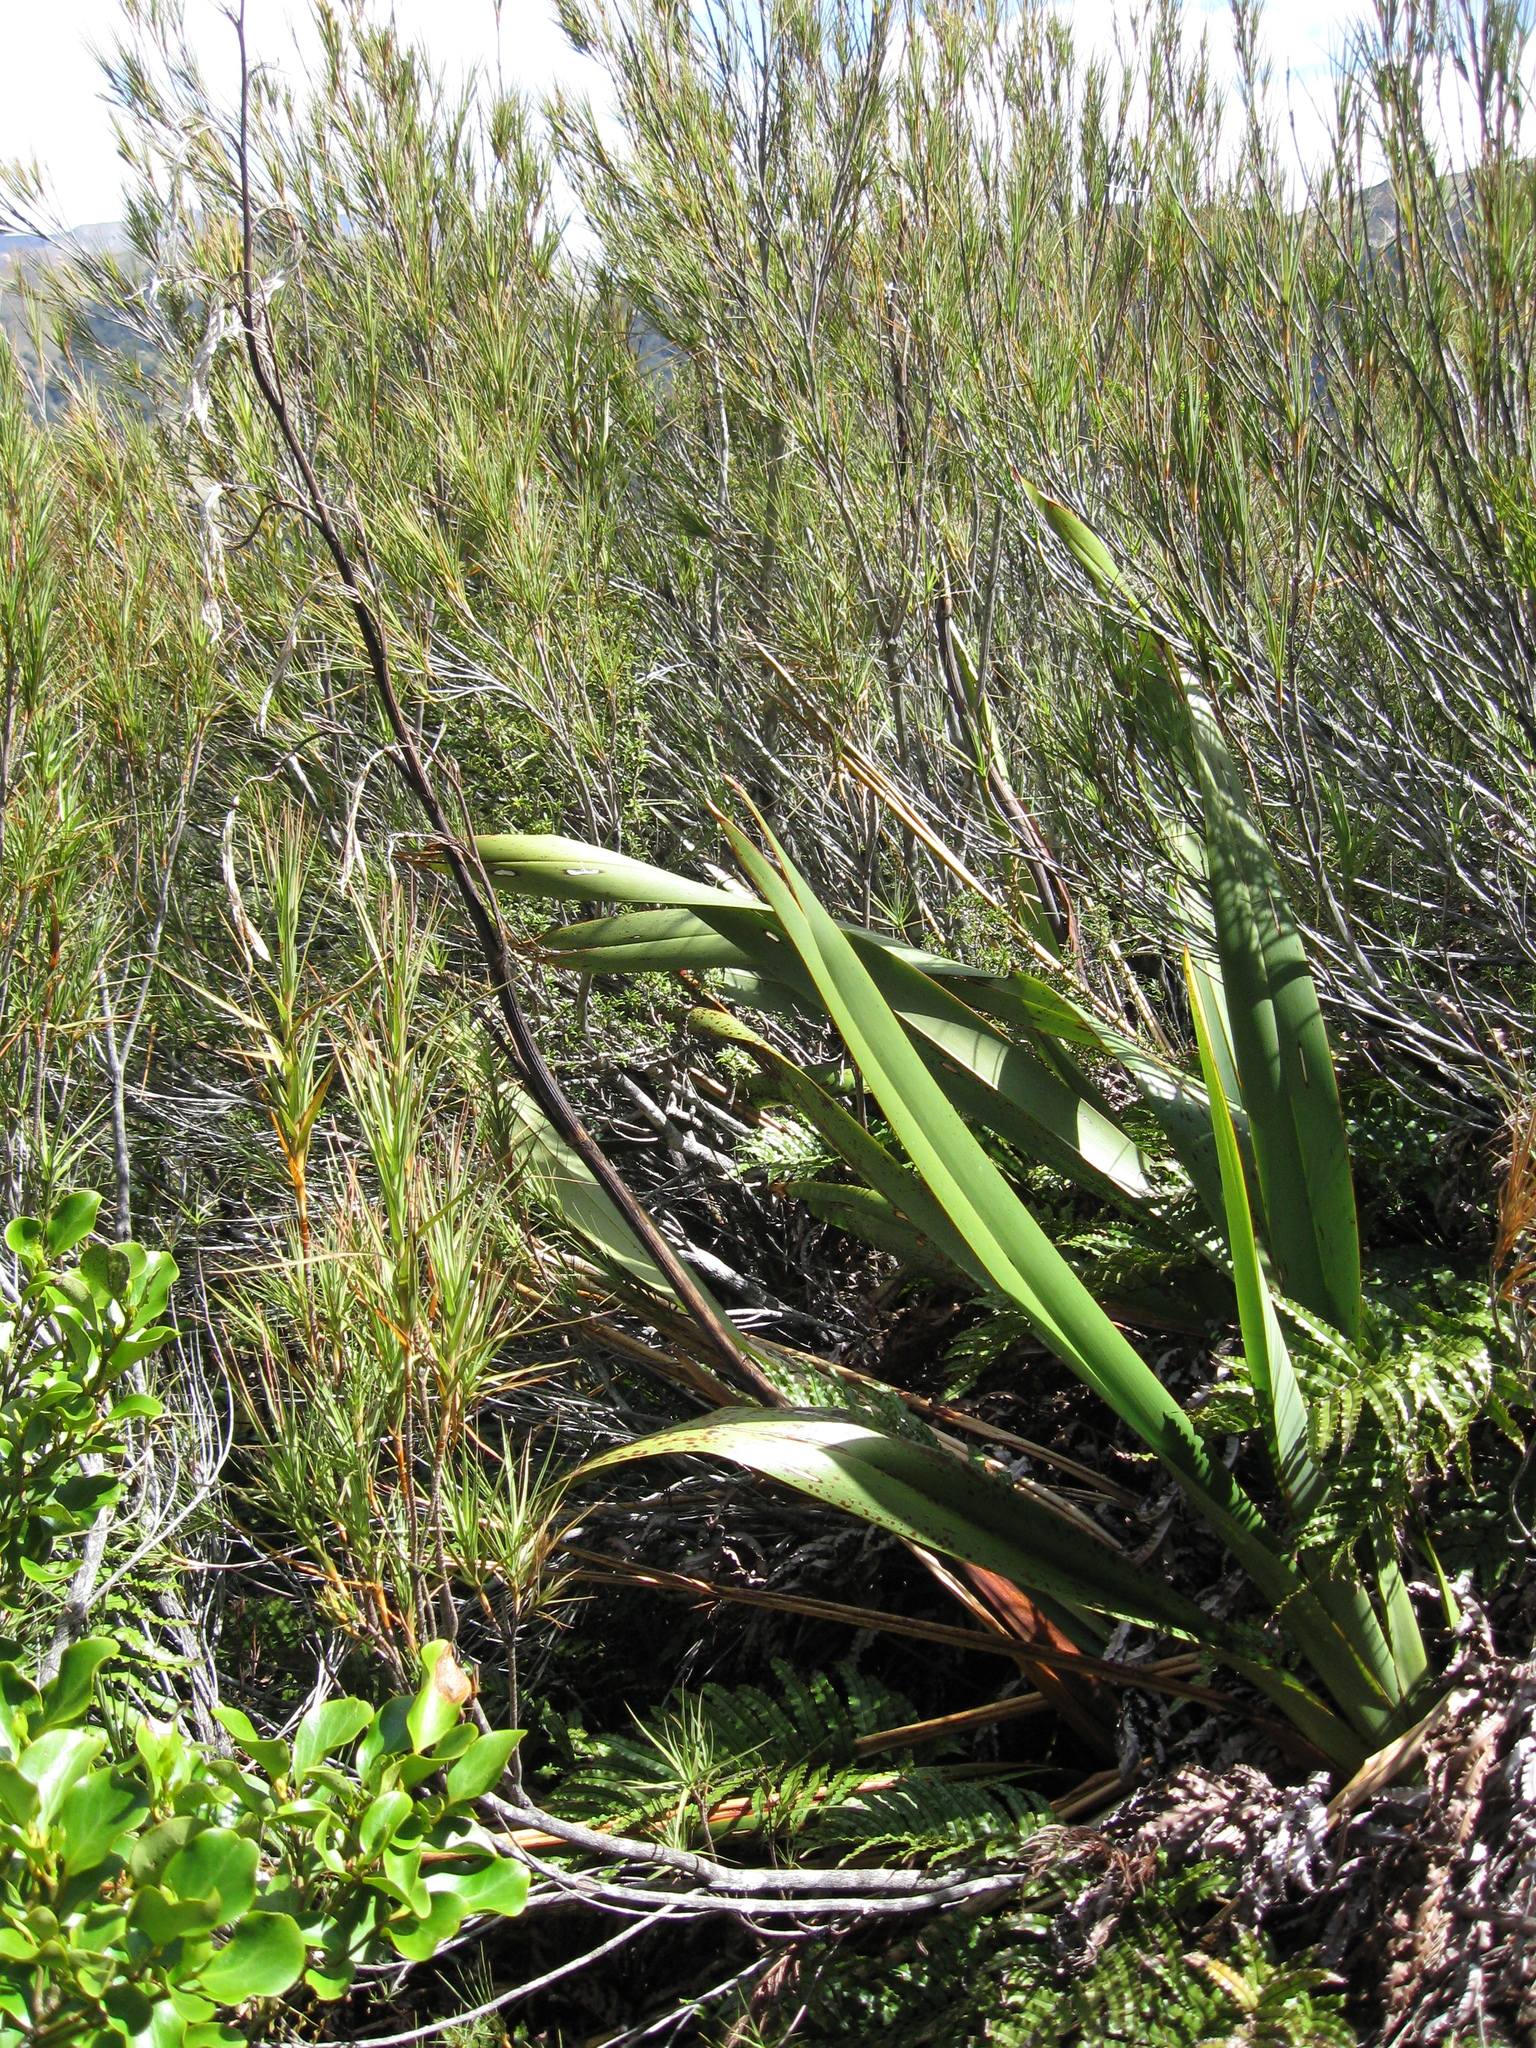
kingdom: Plantae
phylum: Tracheophyta
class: Liliopsida
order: Asparagales
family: Asphodelaceae
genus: Phormium
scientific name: Phormium colensoi
